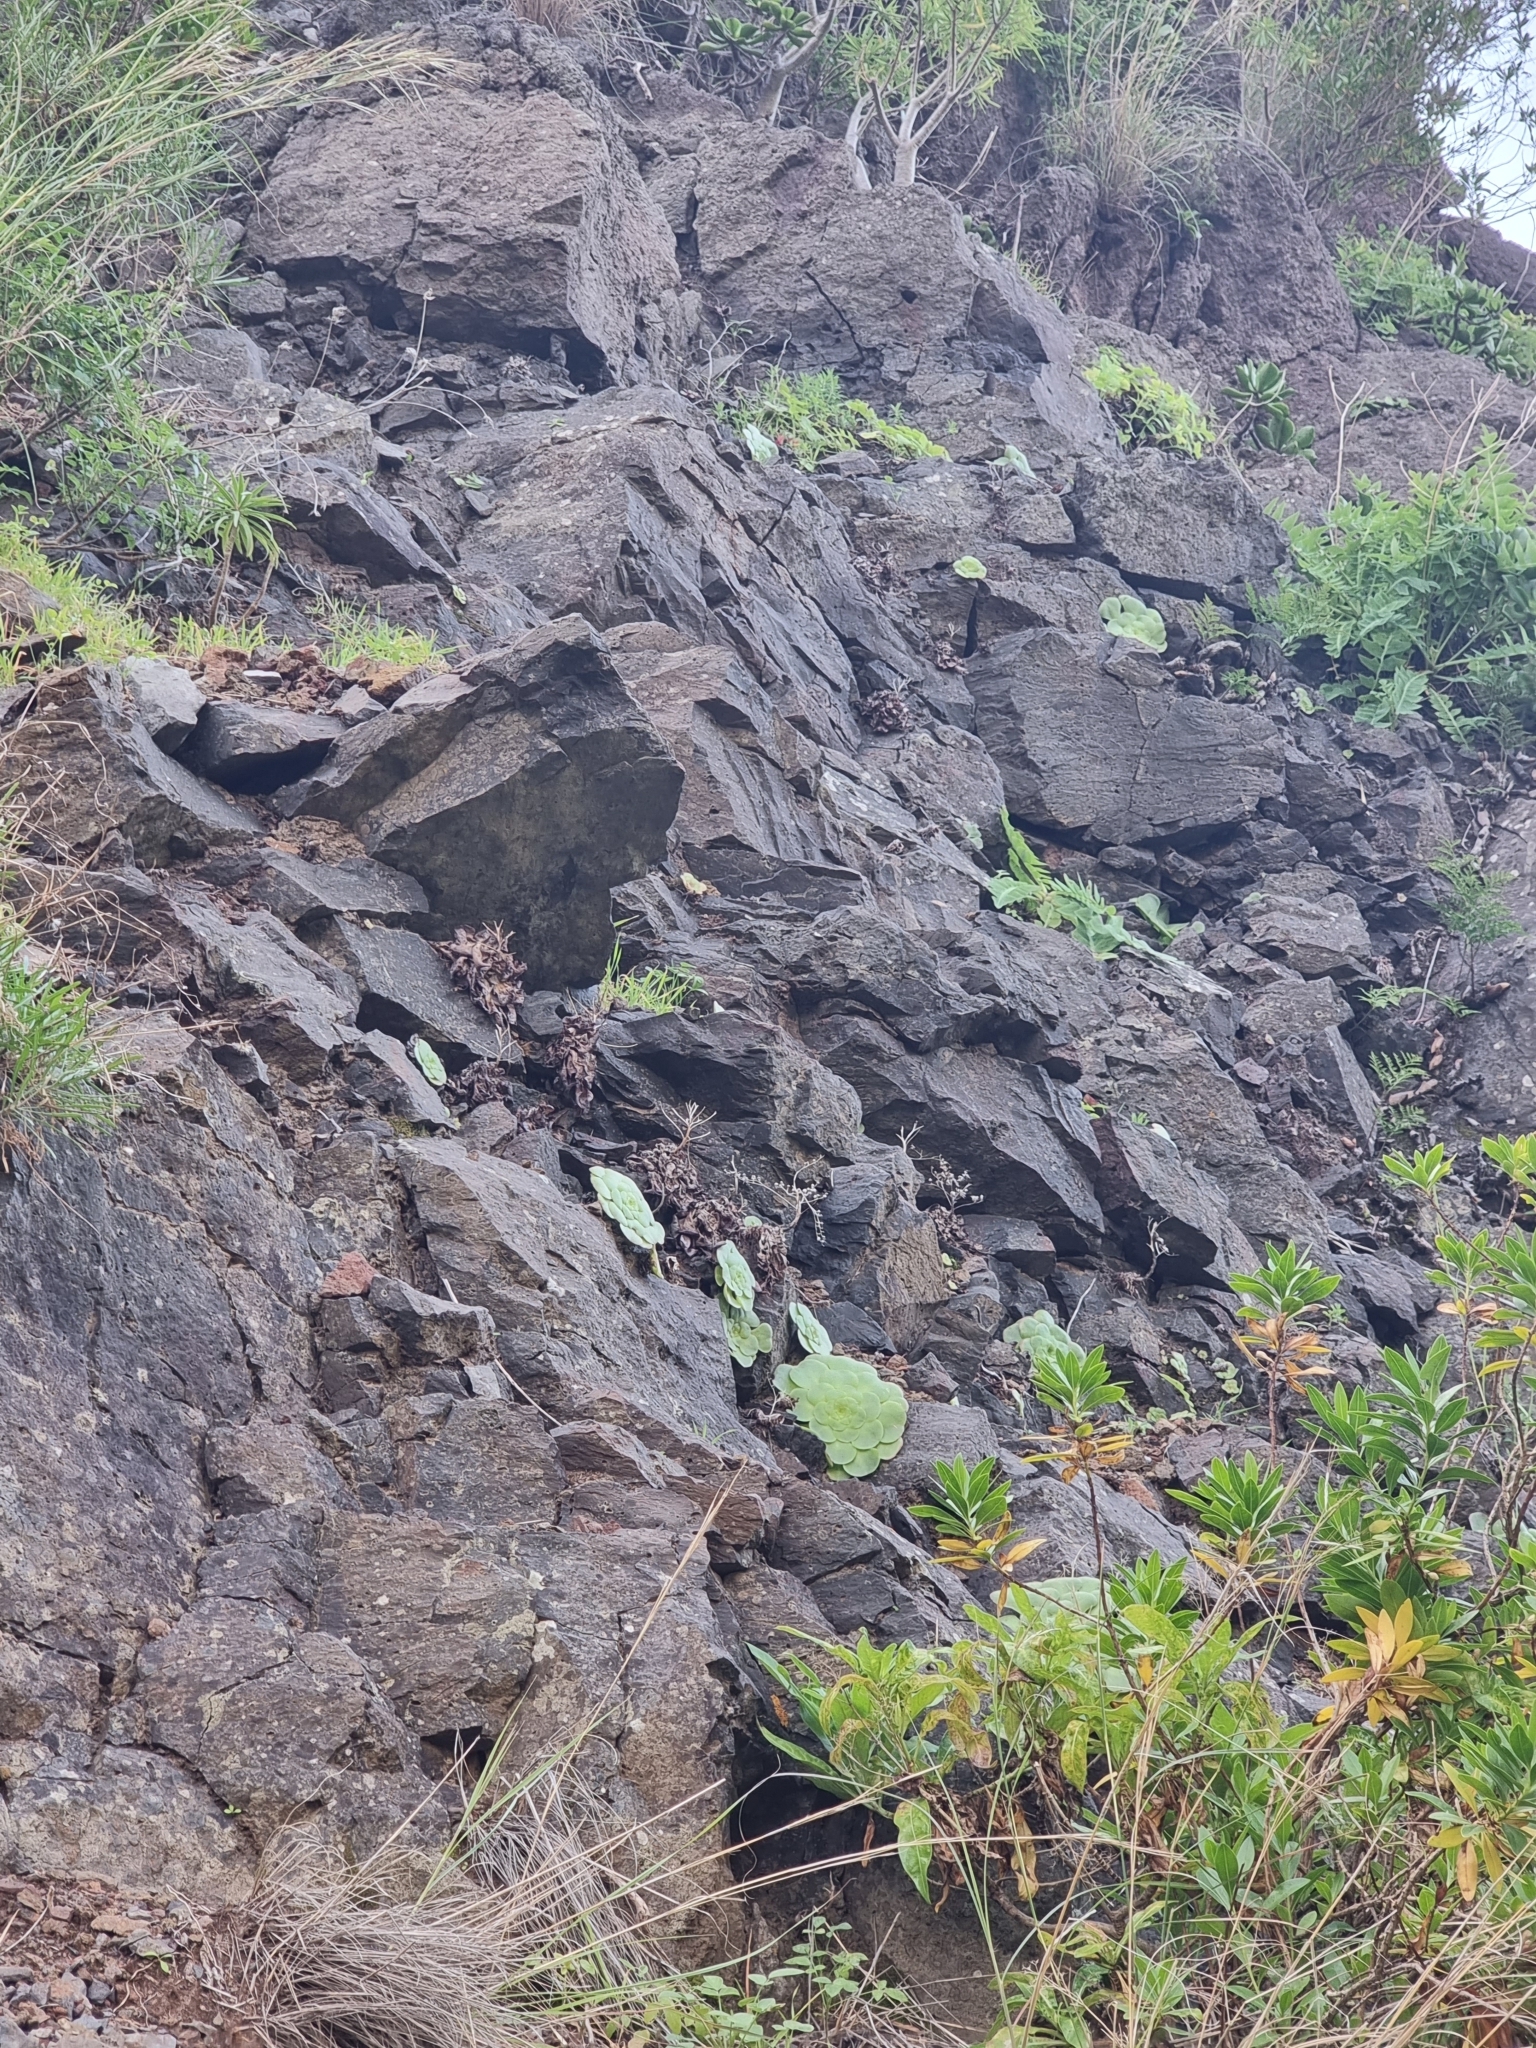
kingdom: Plantae
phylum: Tracheophyta
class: Magnoliopsida
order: Saxifragales
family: Crassulaceae
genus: Aeonium
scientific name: Aeonium glandulosum
